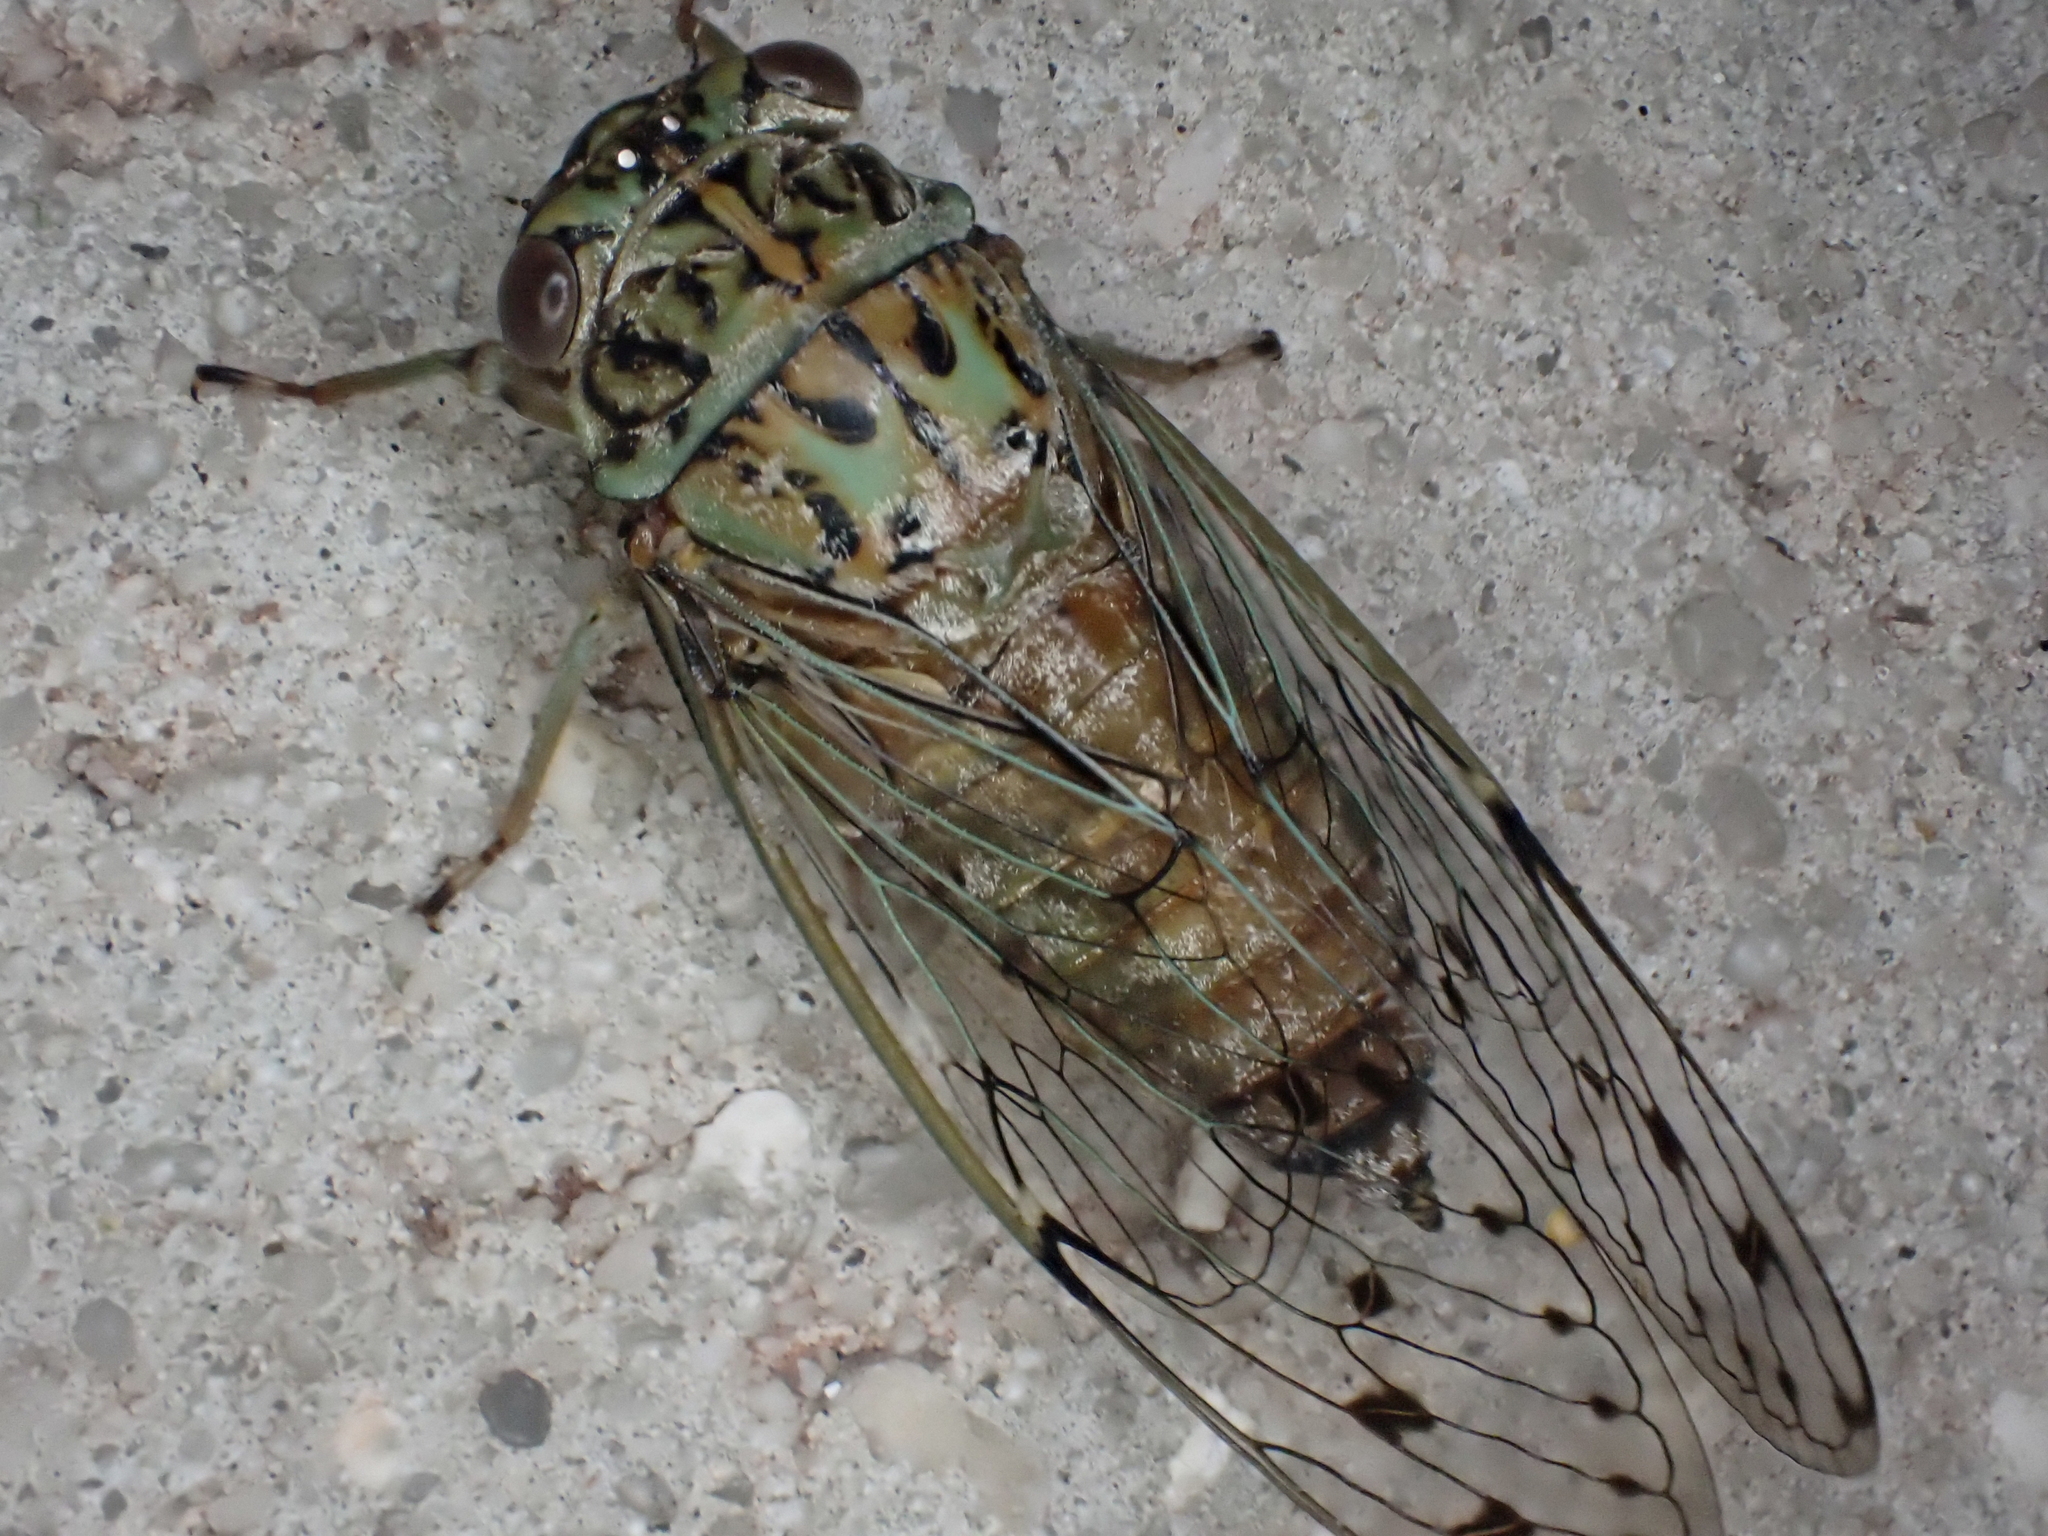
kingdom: Animalia
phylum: Arthropoda
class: Insecta
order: Hemiptera
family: Cicadidae
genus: Neocicada
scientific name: Neocicada hieroglyphica
